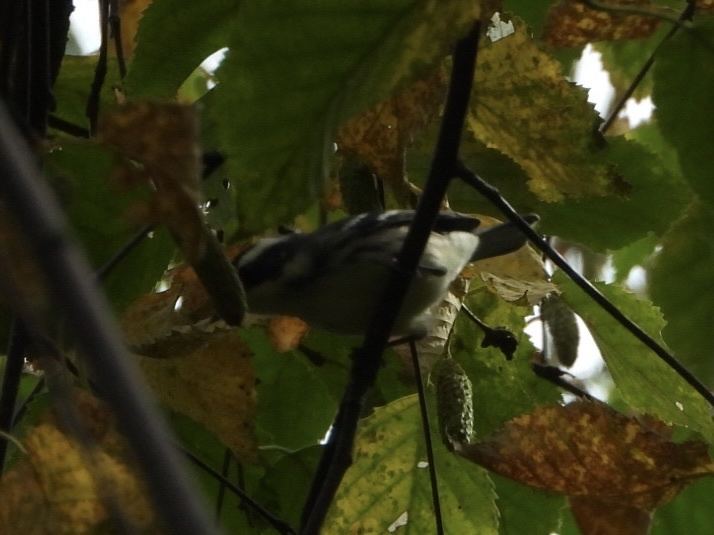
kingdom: Animalia
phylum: Chordata
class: Aves
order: Passeriformes
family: Parulidae
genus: Setophaga
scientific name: Setophaga nigrescens
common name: Black-throated gray warbler
